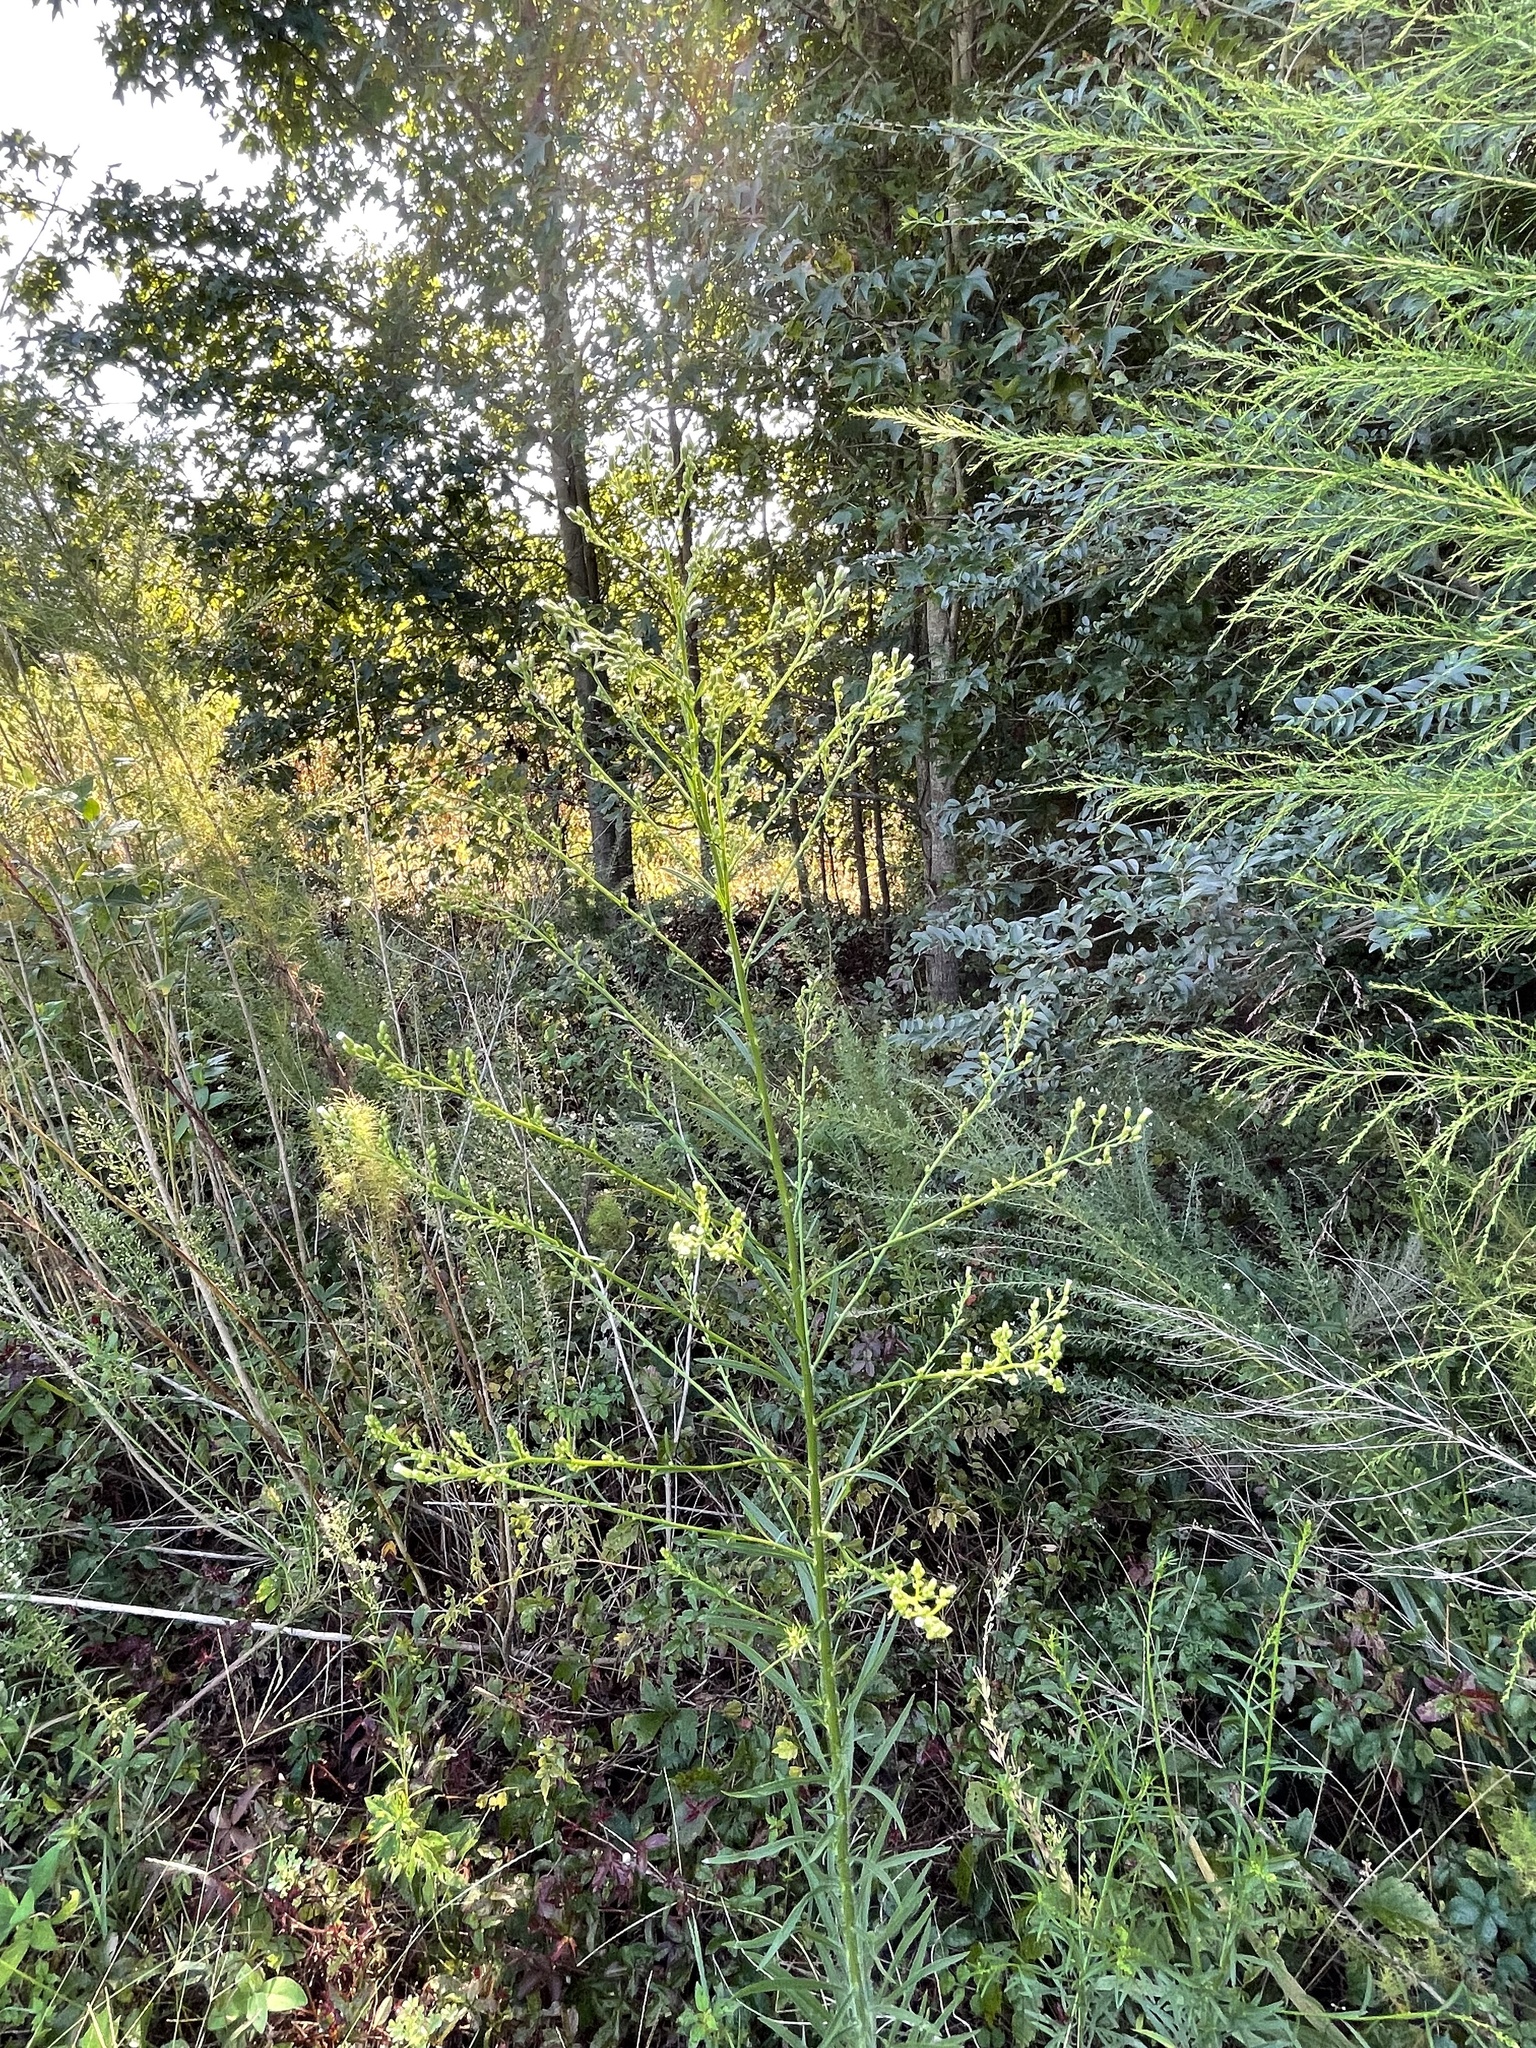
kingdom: Plantae
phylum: Tracheophyta
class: Magnoliopsida
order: Asterales
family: Asteraceae
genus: Erigeron
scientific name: Erigeron canadensis
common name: Canadian fleabane
